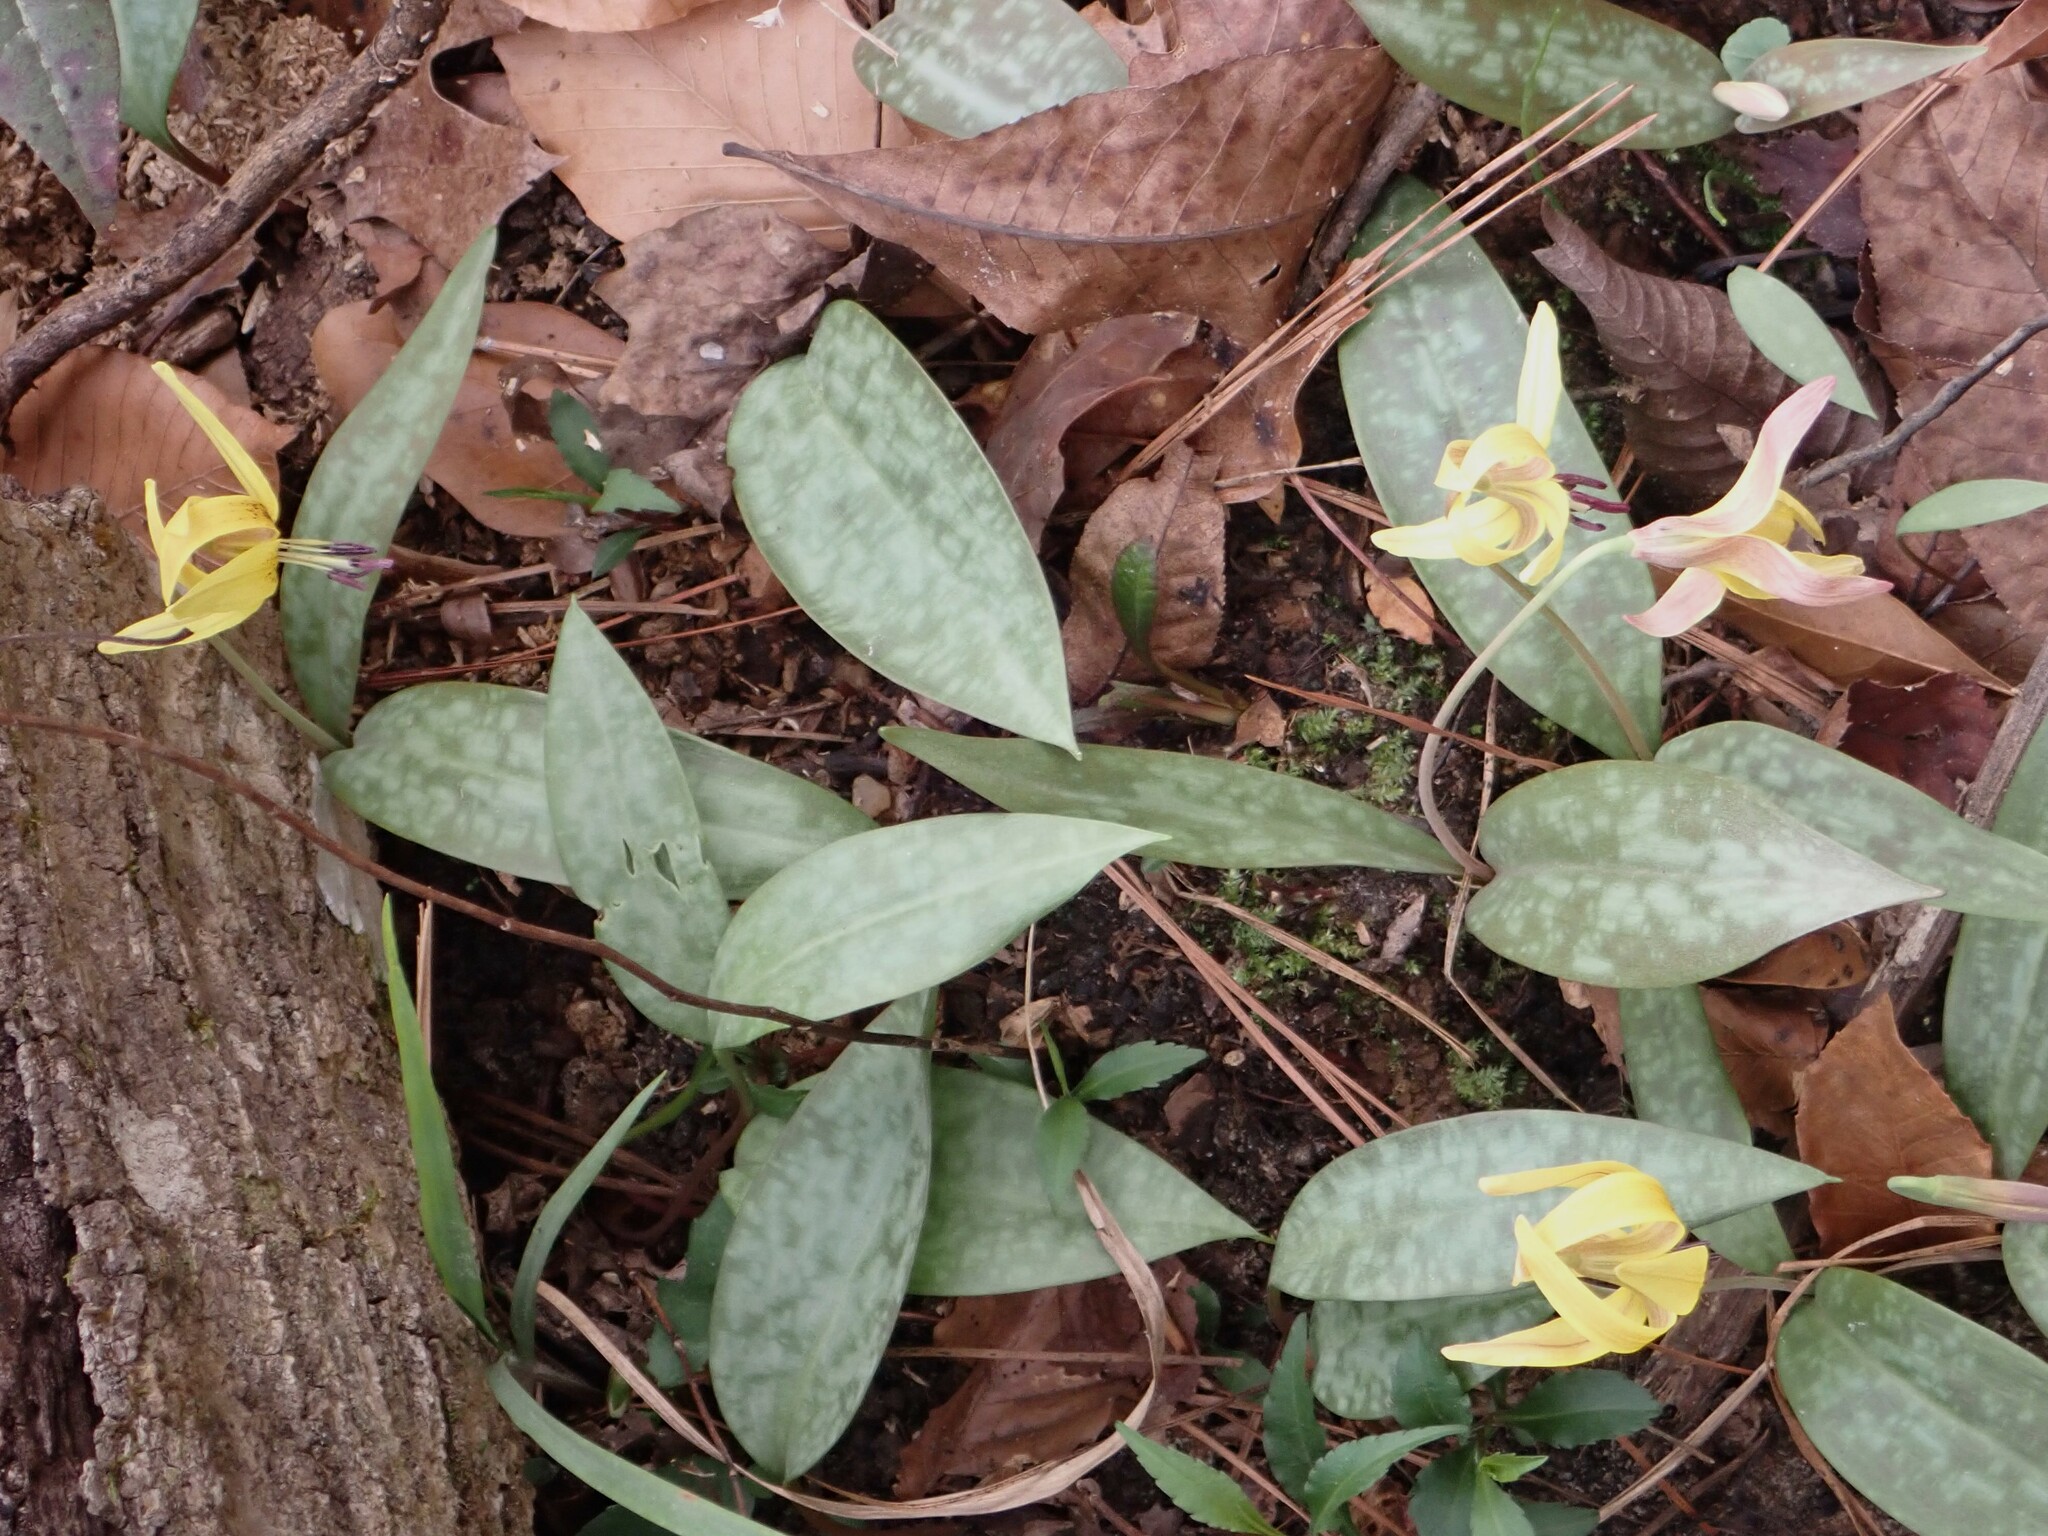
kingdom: Plantae
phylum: Tracheophyta
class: Liliopsida
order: Liliales
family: Liliaceae
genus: Erythronium
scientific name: Erythronium umbilicatum
